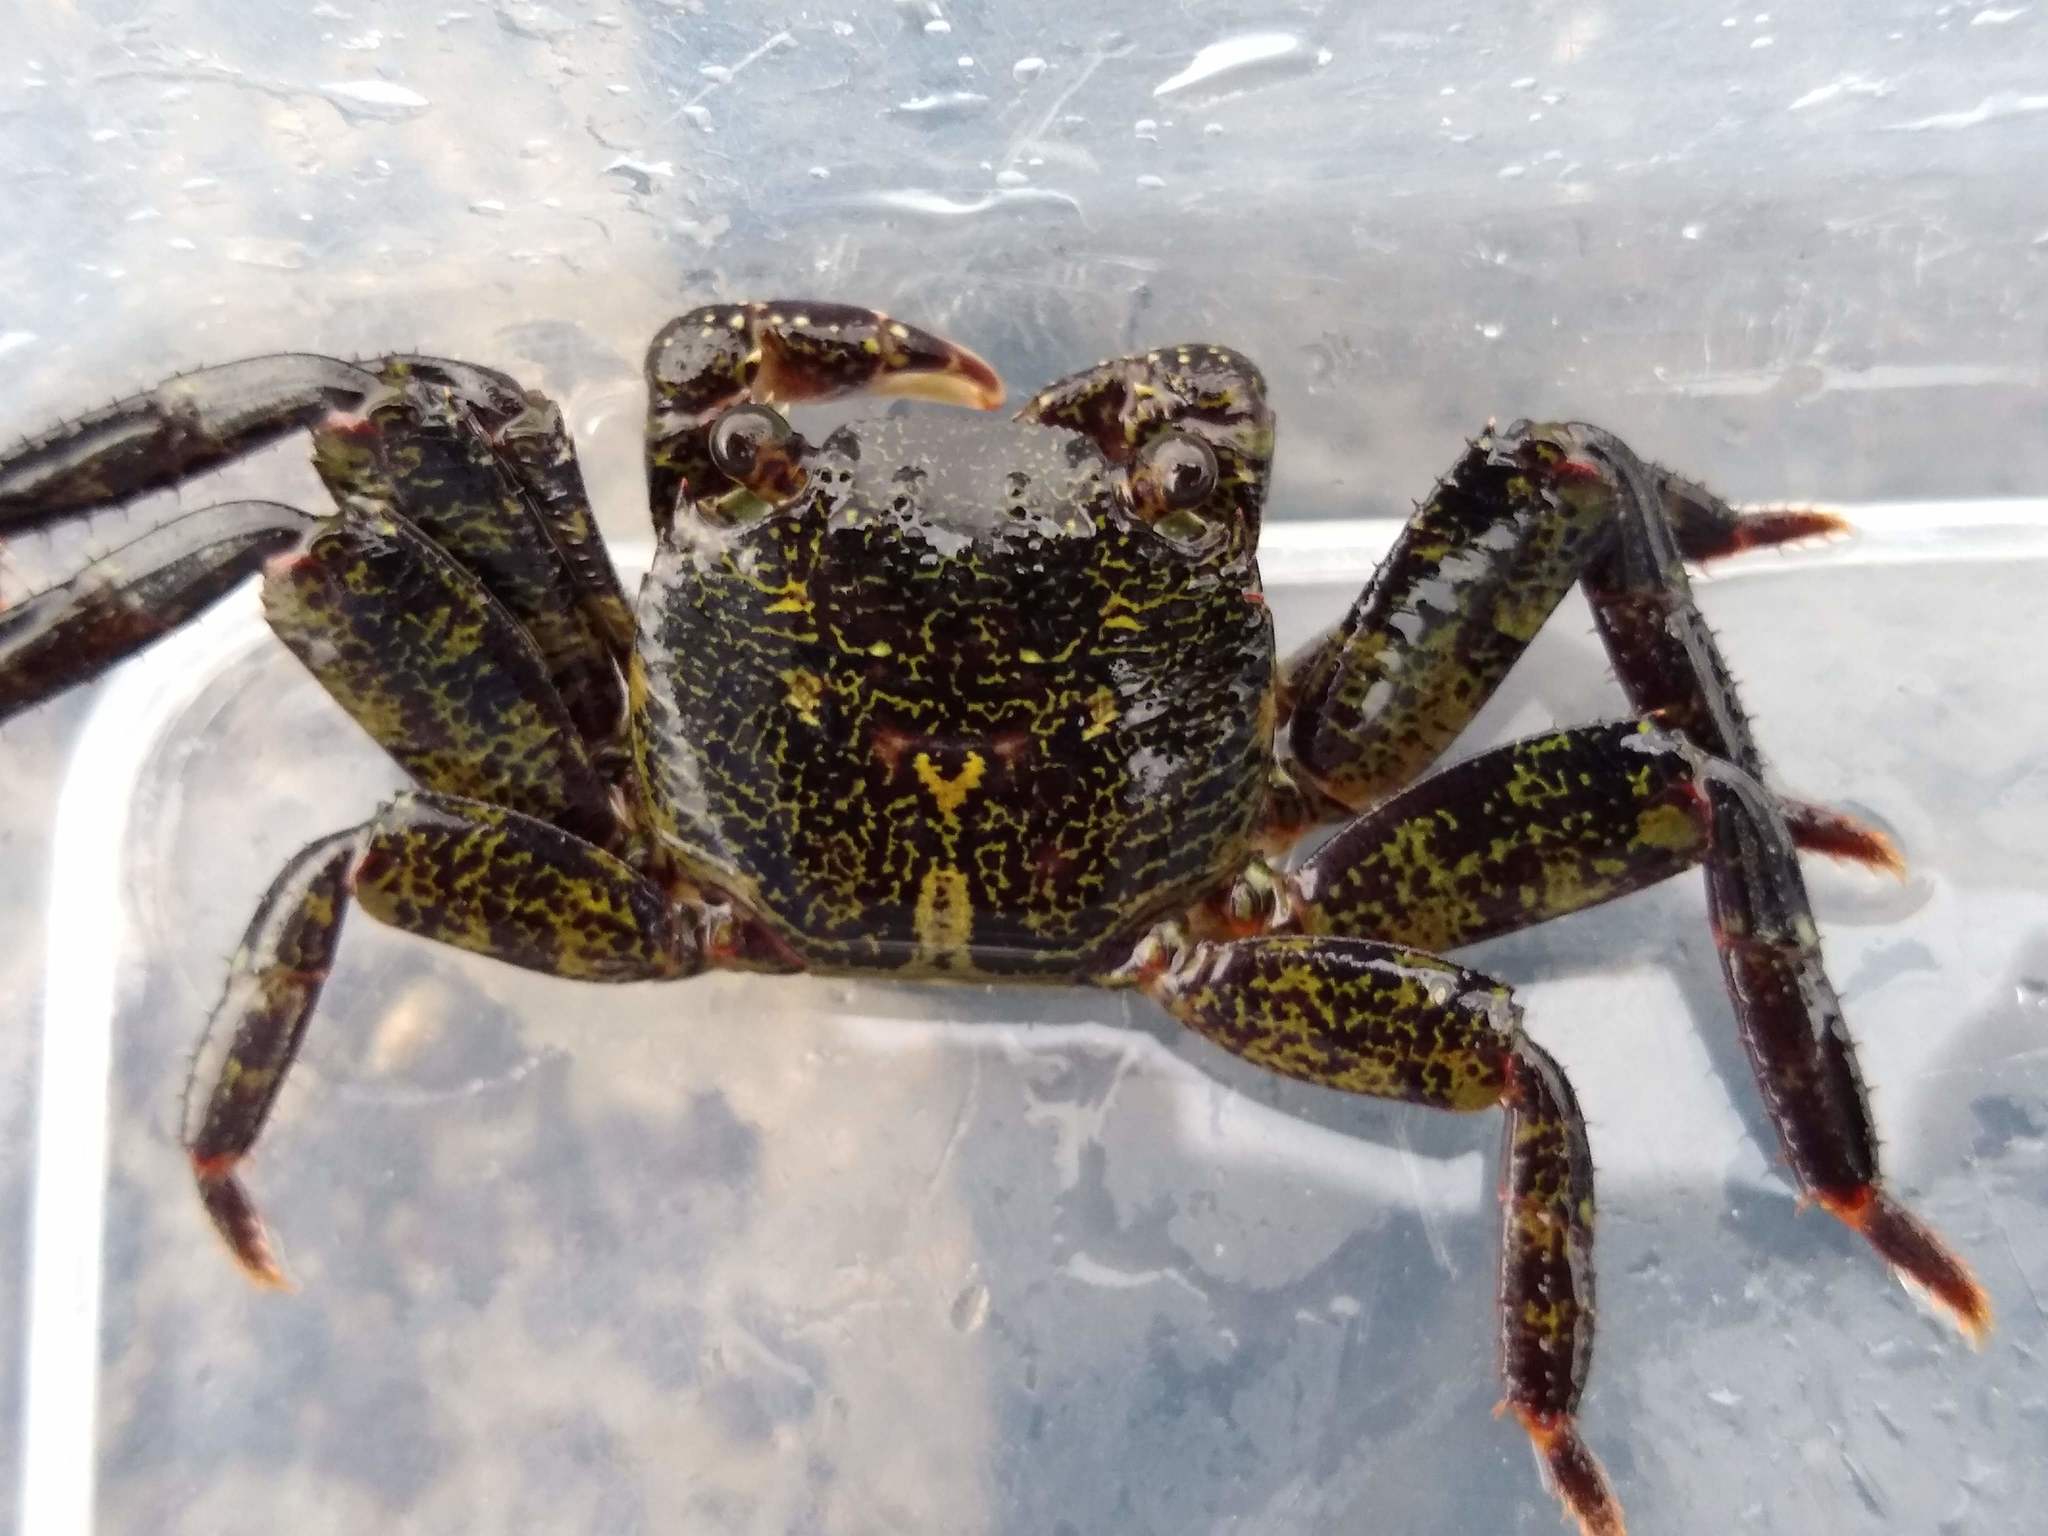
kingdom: Animalia
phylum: Arthropoda
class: Malacostraca
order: Decapoda
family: Grapsidae
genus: Leptograpsus
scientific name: Leptograpsus variegatus
